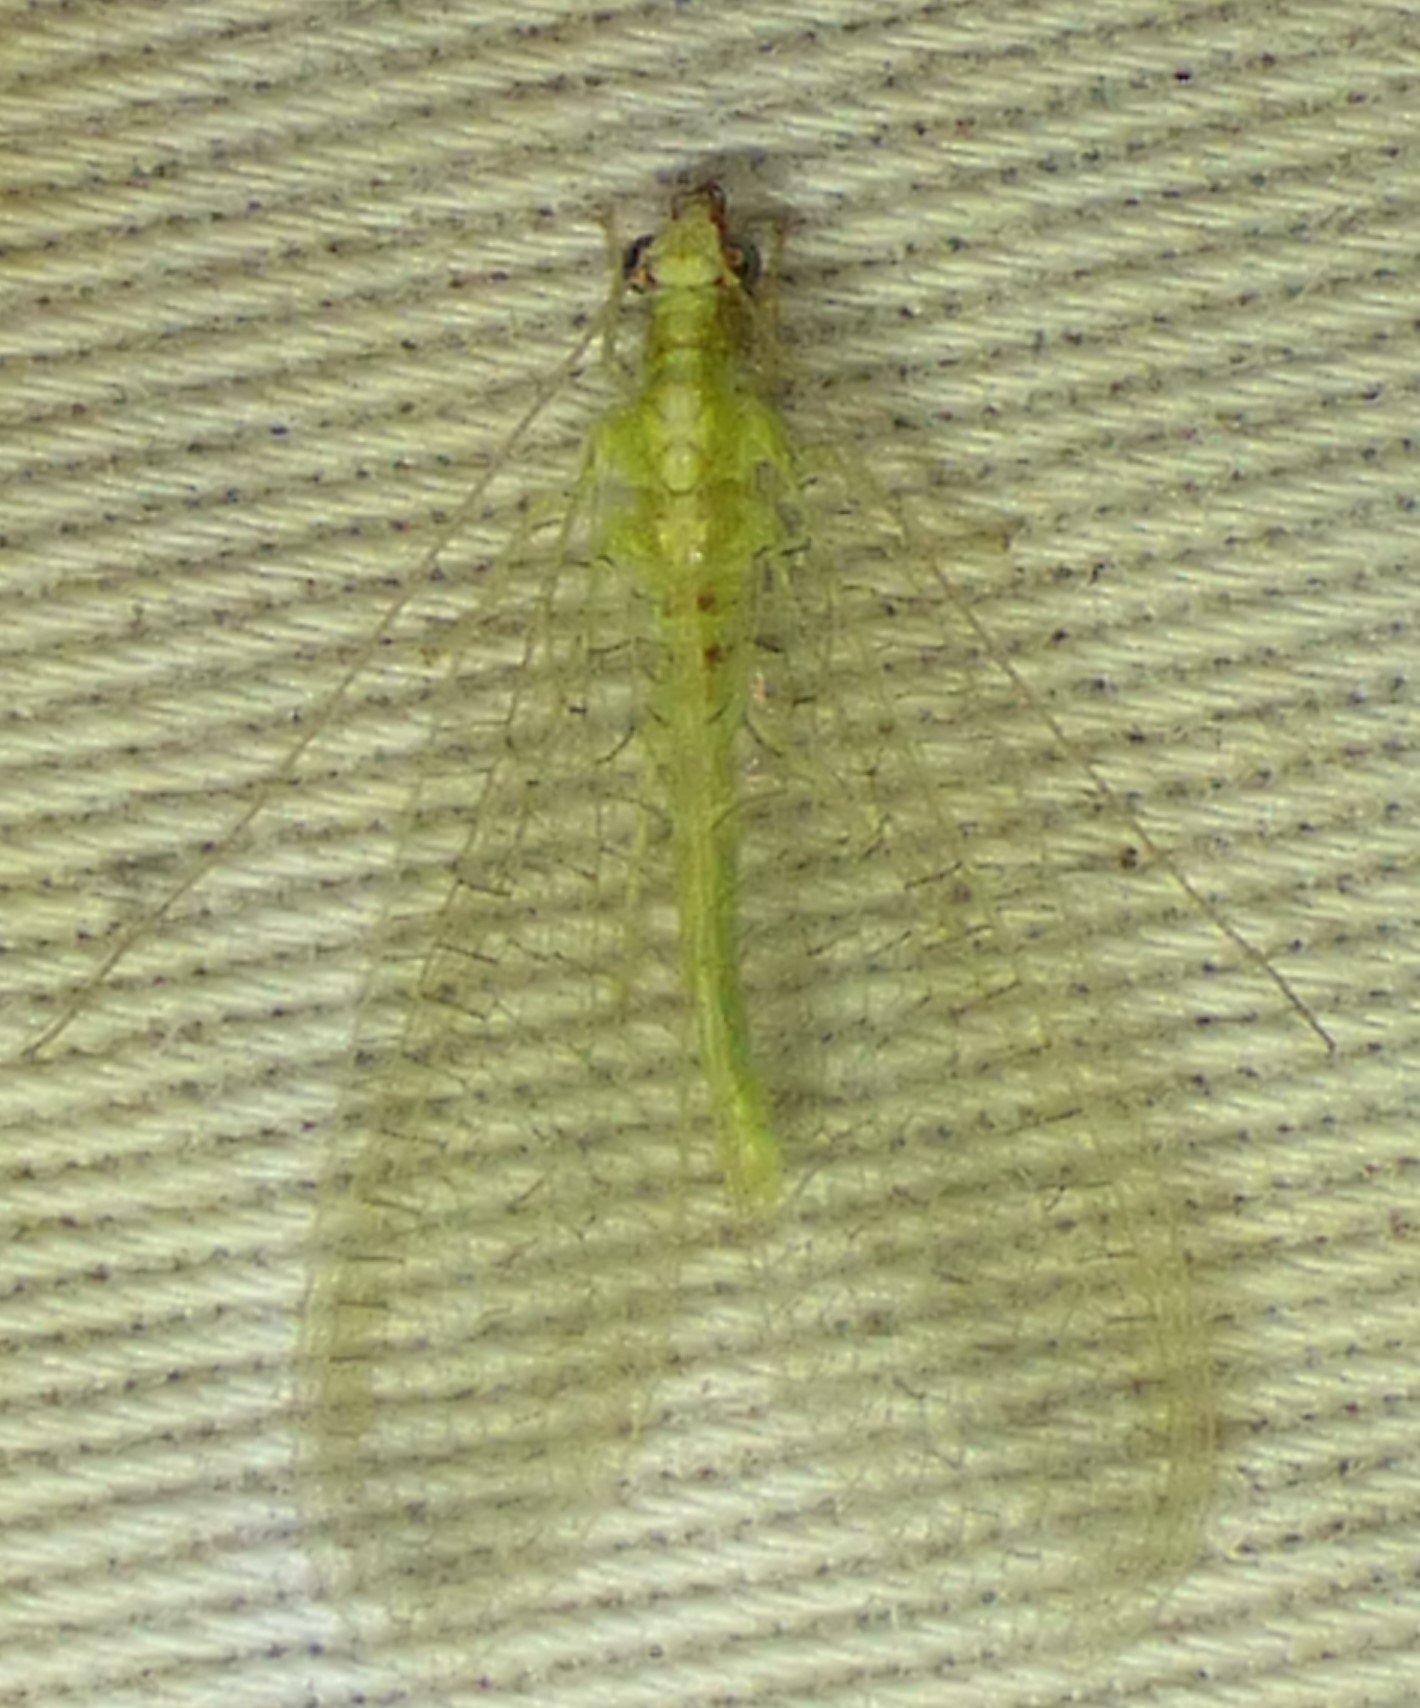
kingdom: Animalia
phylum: Arthropoda
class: Insecta
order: Neuroptera
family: Chrysopidae
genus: Chrysoperla
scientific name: Chrysoperla
